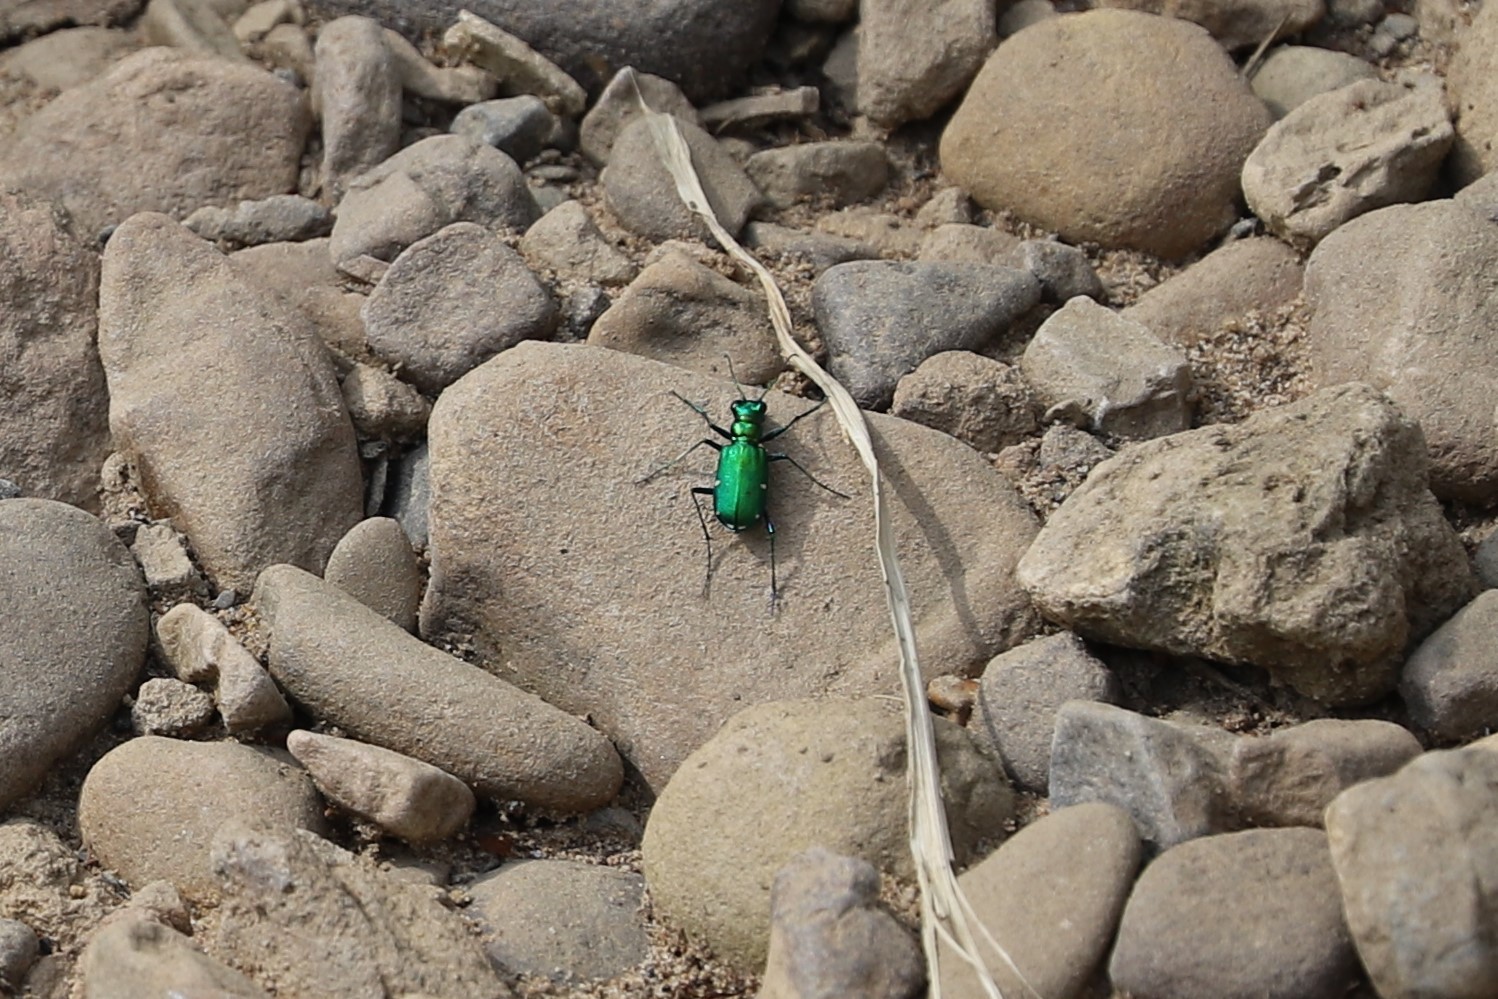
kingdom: Animalia
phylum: Arthropoda
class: Insecta
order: Coleoptera
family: Carabidae
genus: Cicindela
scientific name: Cicindela sexguttata
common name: Six-spotted tiger beetle
